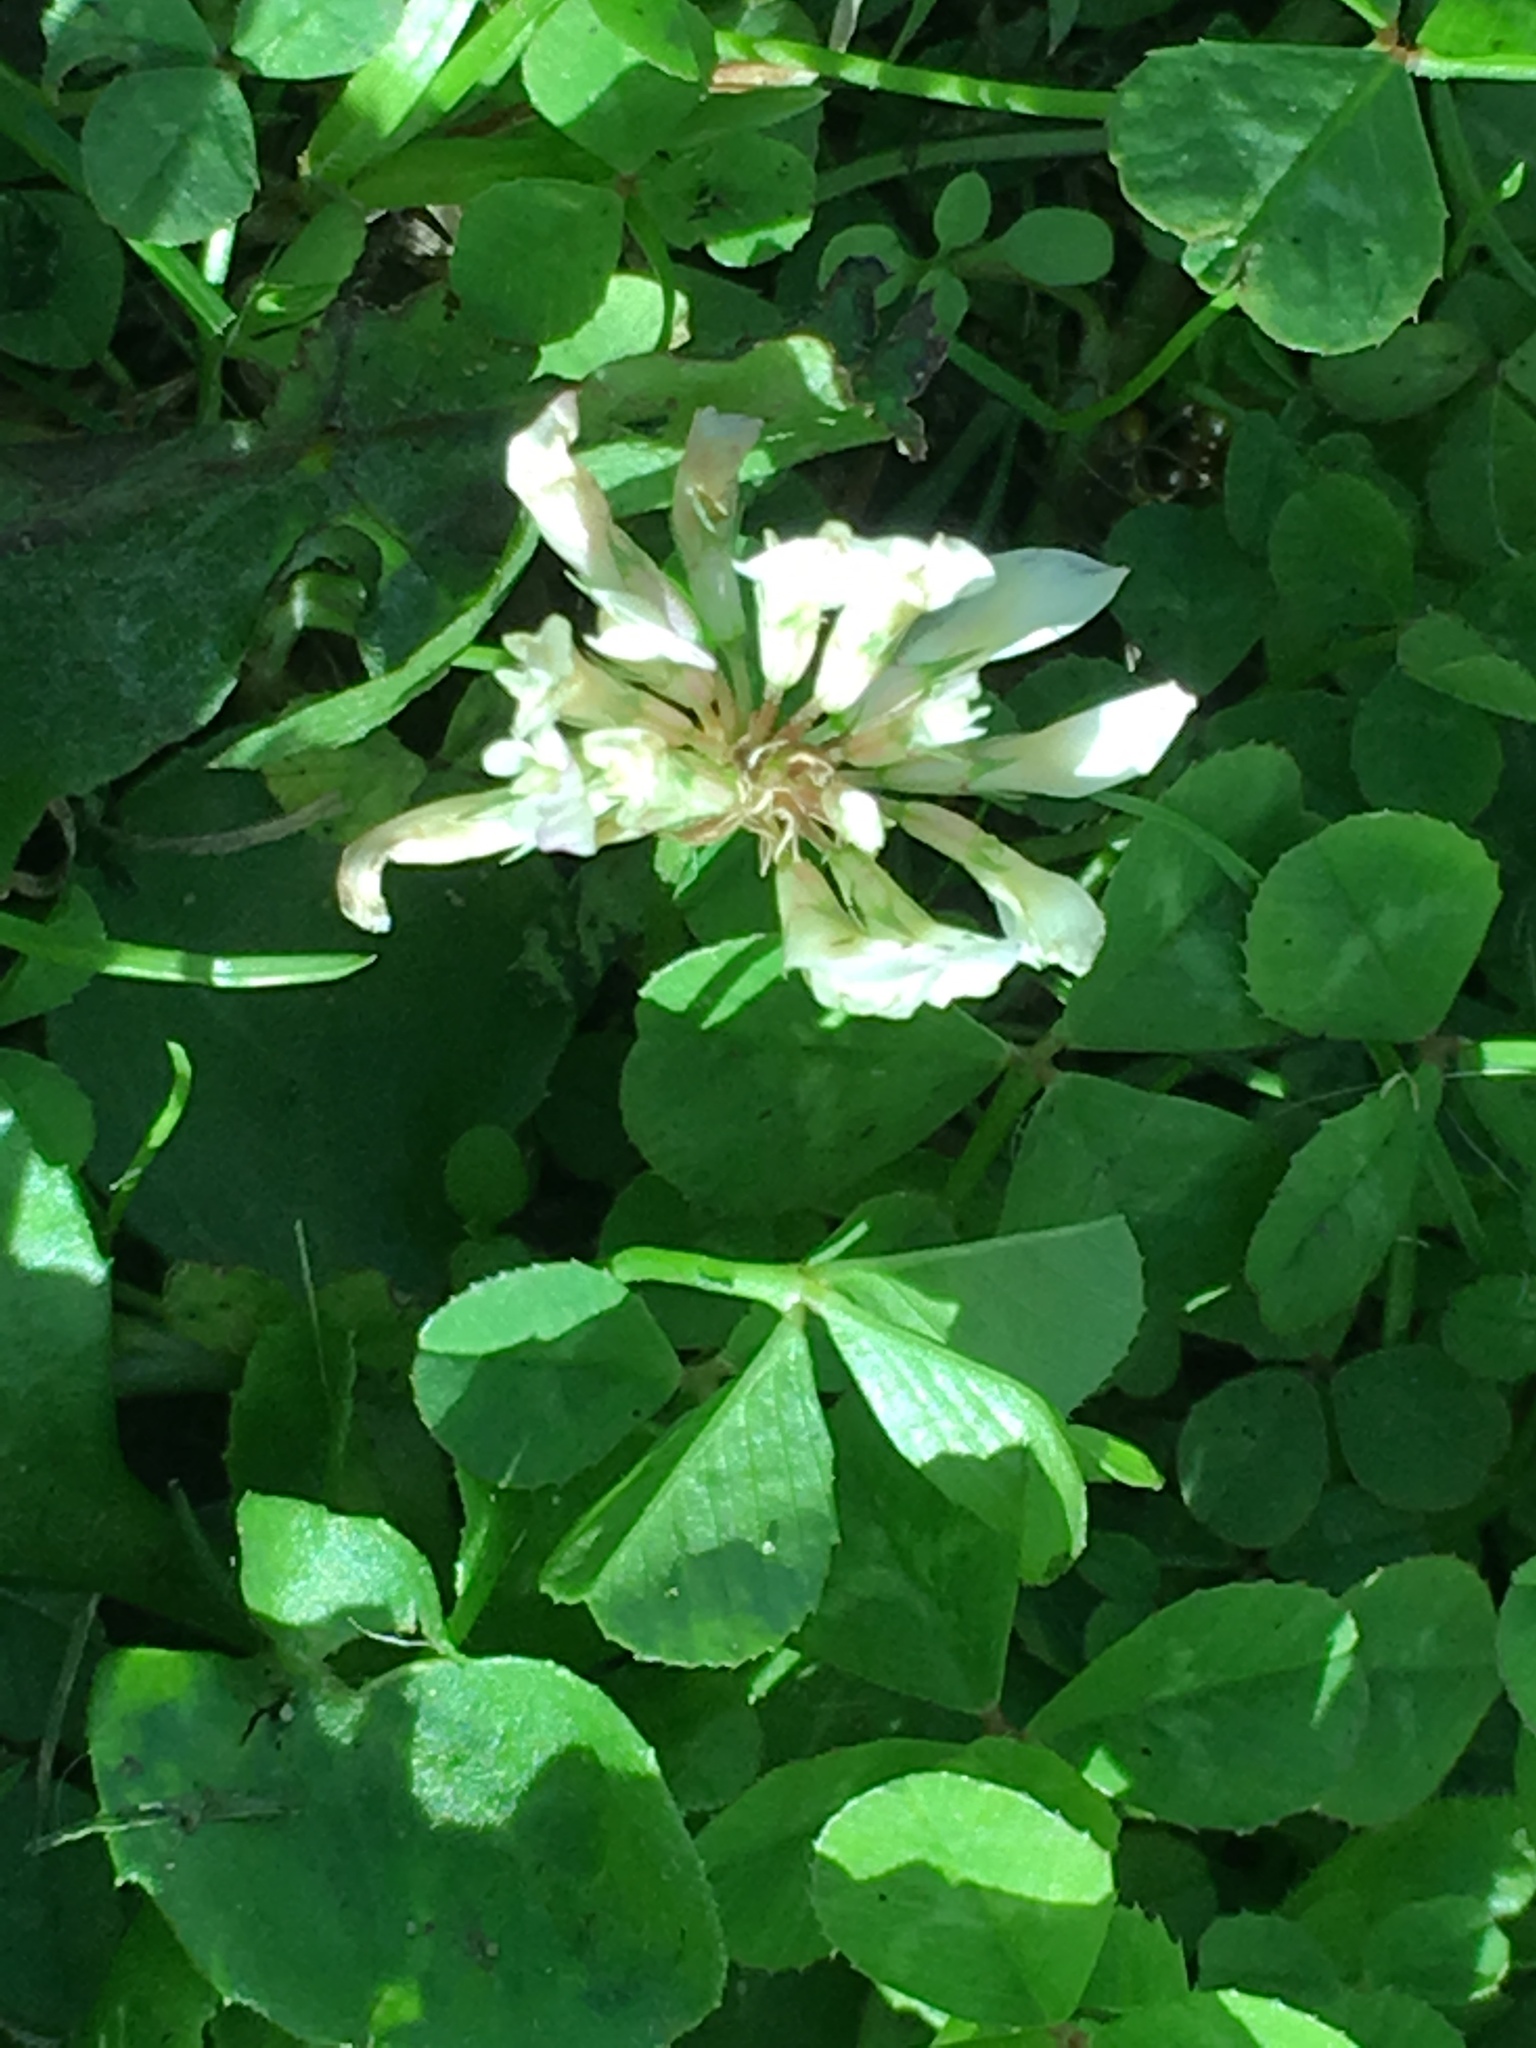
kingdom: Plantae
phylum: Tracheophyta
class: Magnoliopsida
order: Fabales
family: Fabaceae
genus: Trifolium
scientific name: Trifolium repens
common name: White clover
